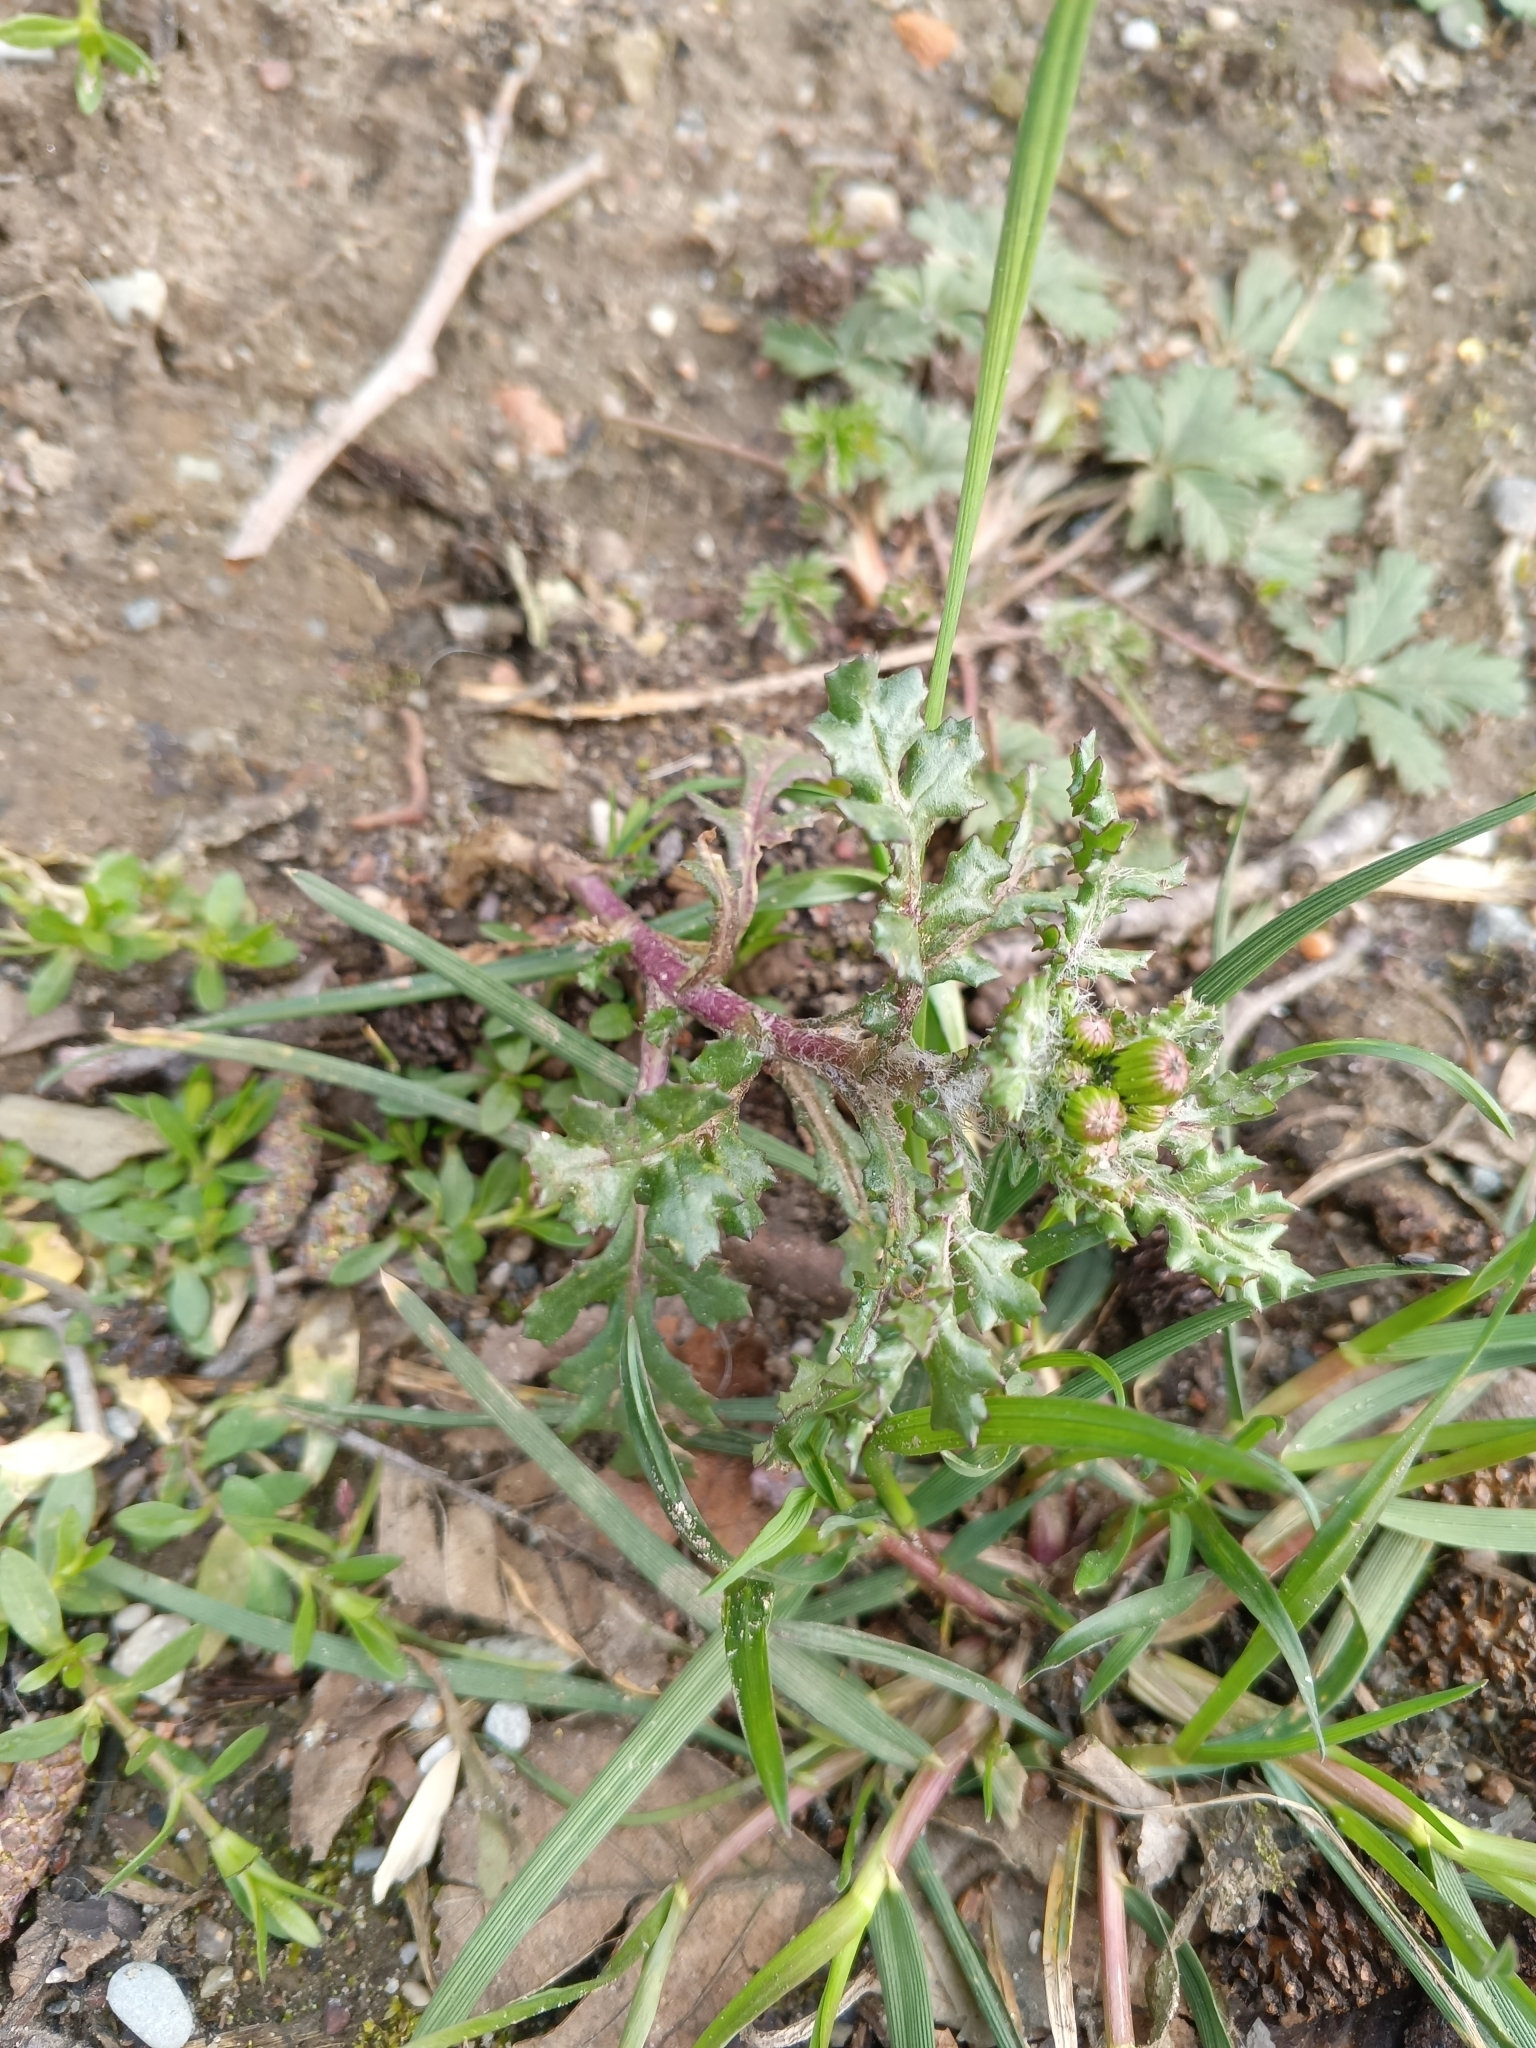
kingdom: Plantae
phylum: Tracheophyta
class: Magnoliopsida
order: Asterales
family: Asteraceae
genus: Senecio
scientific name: Senecio vulgaris
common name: Old-man-in-the-spring
